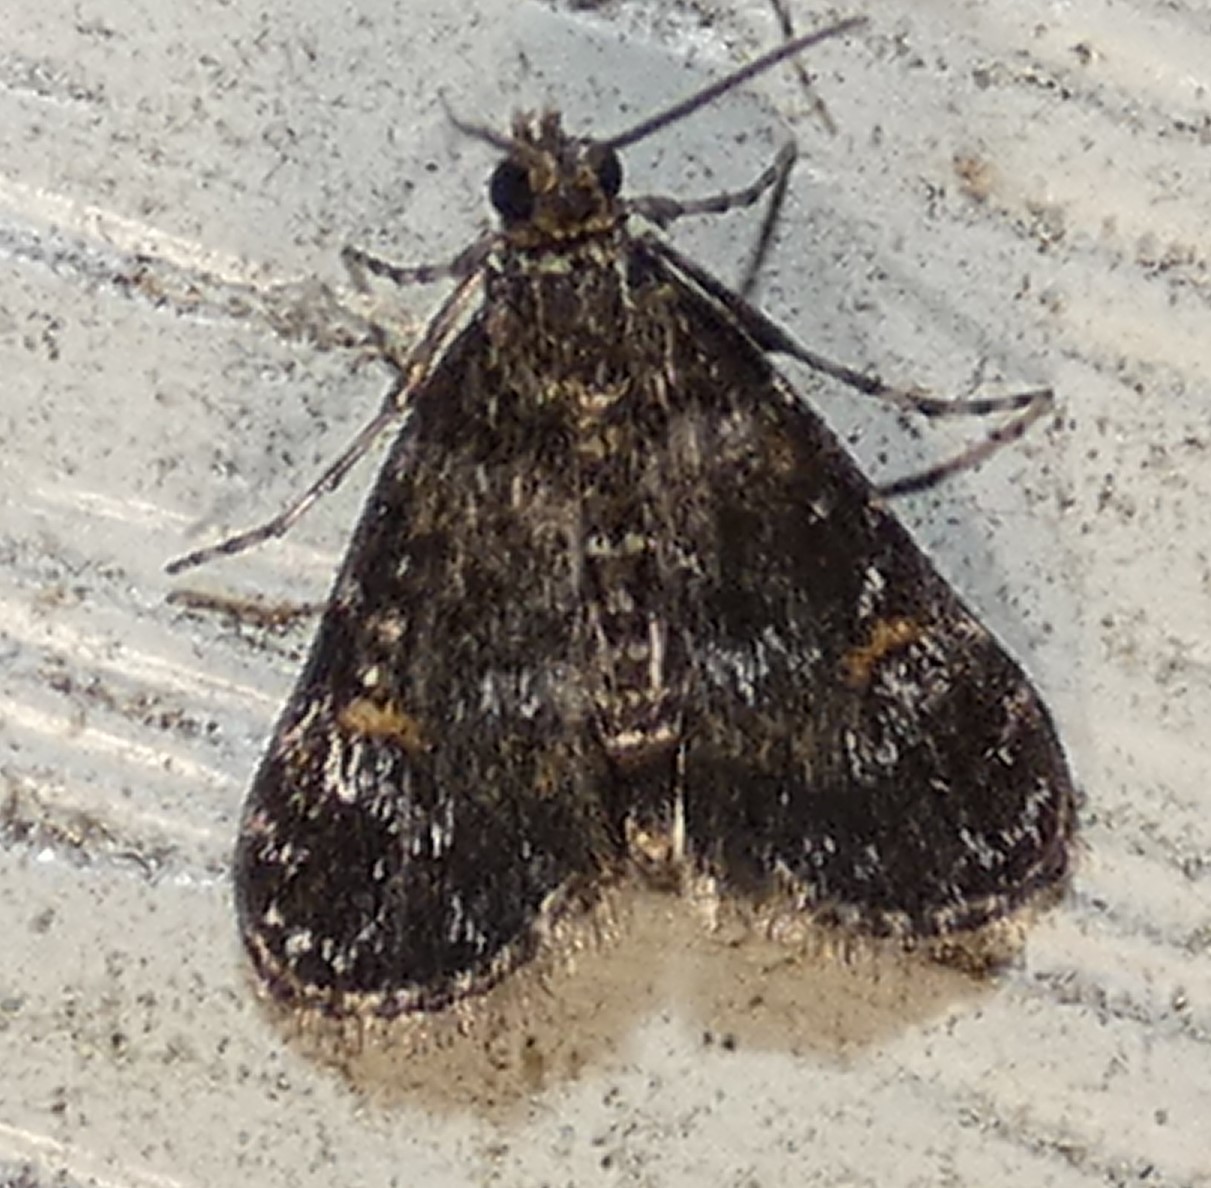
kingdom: Animalia
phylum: Arthropoda
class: Insecta
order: Lepidoptera
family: Crambidae
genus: Elophila
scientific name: Elophila obliteralis
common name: Waterlily leafcutter moth
